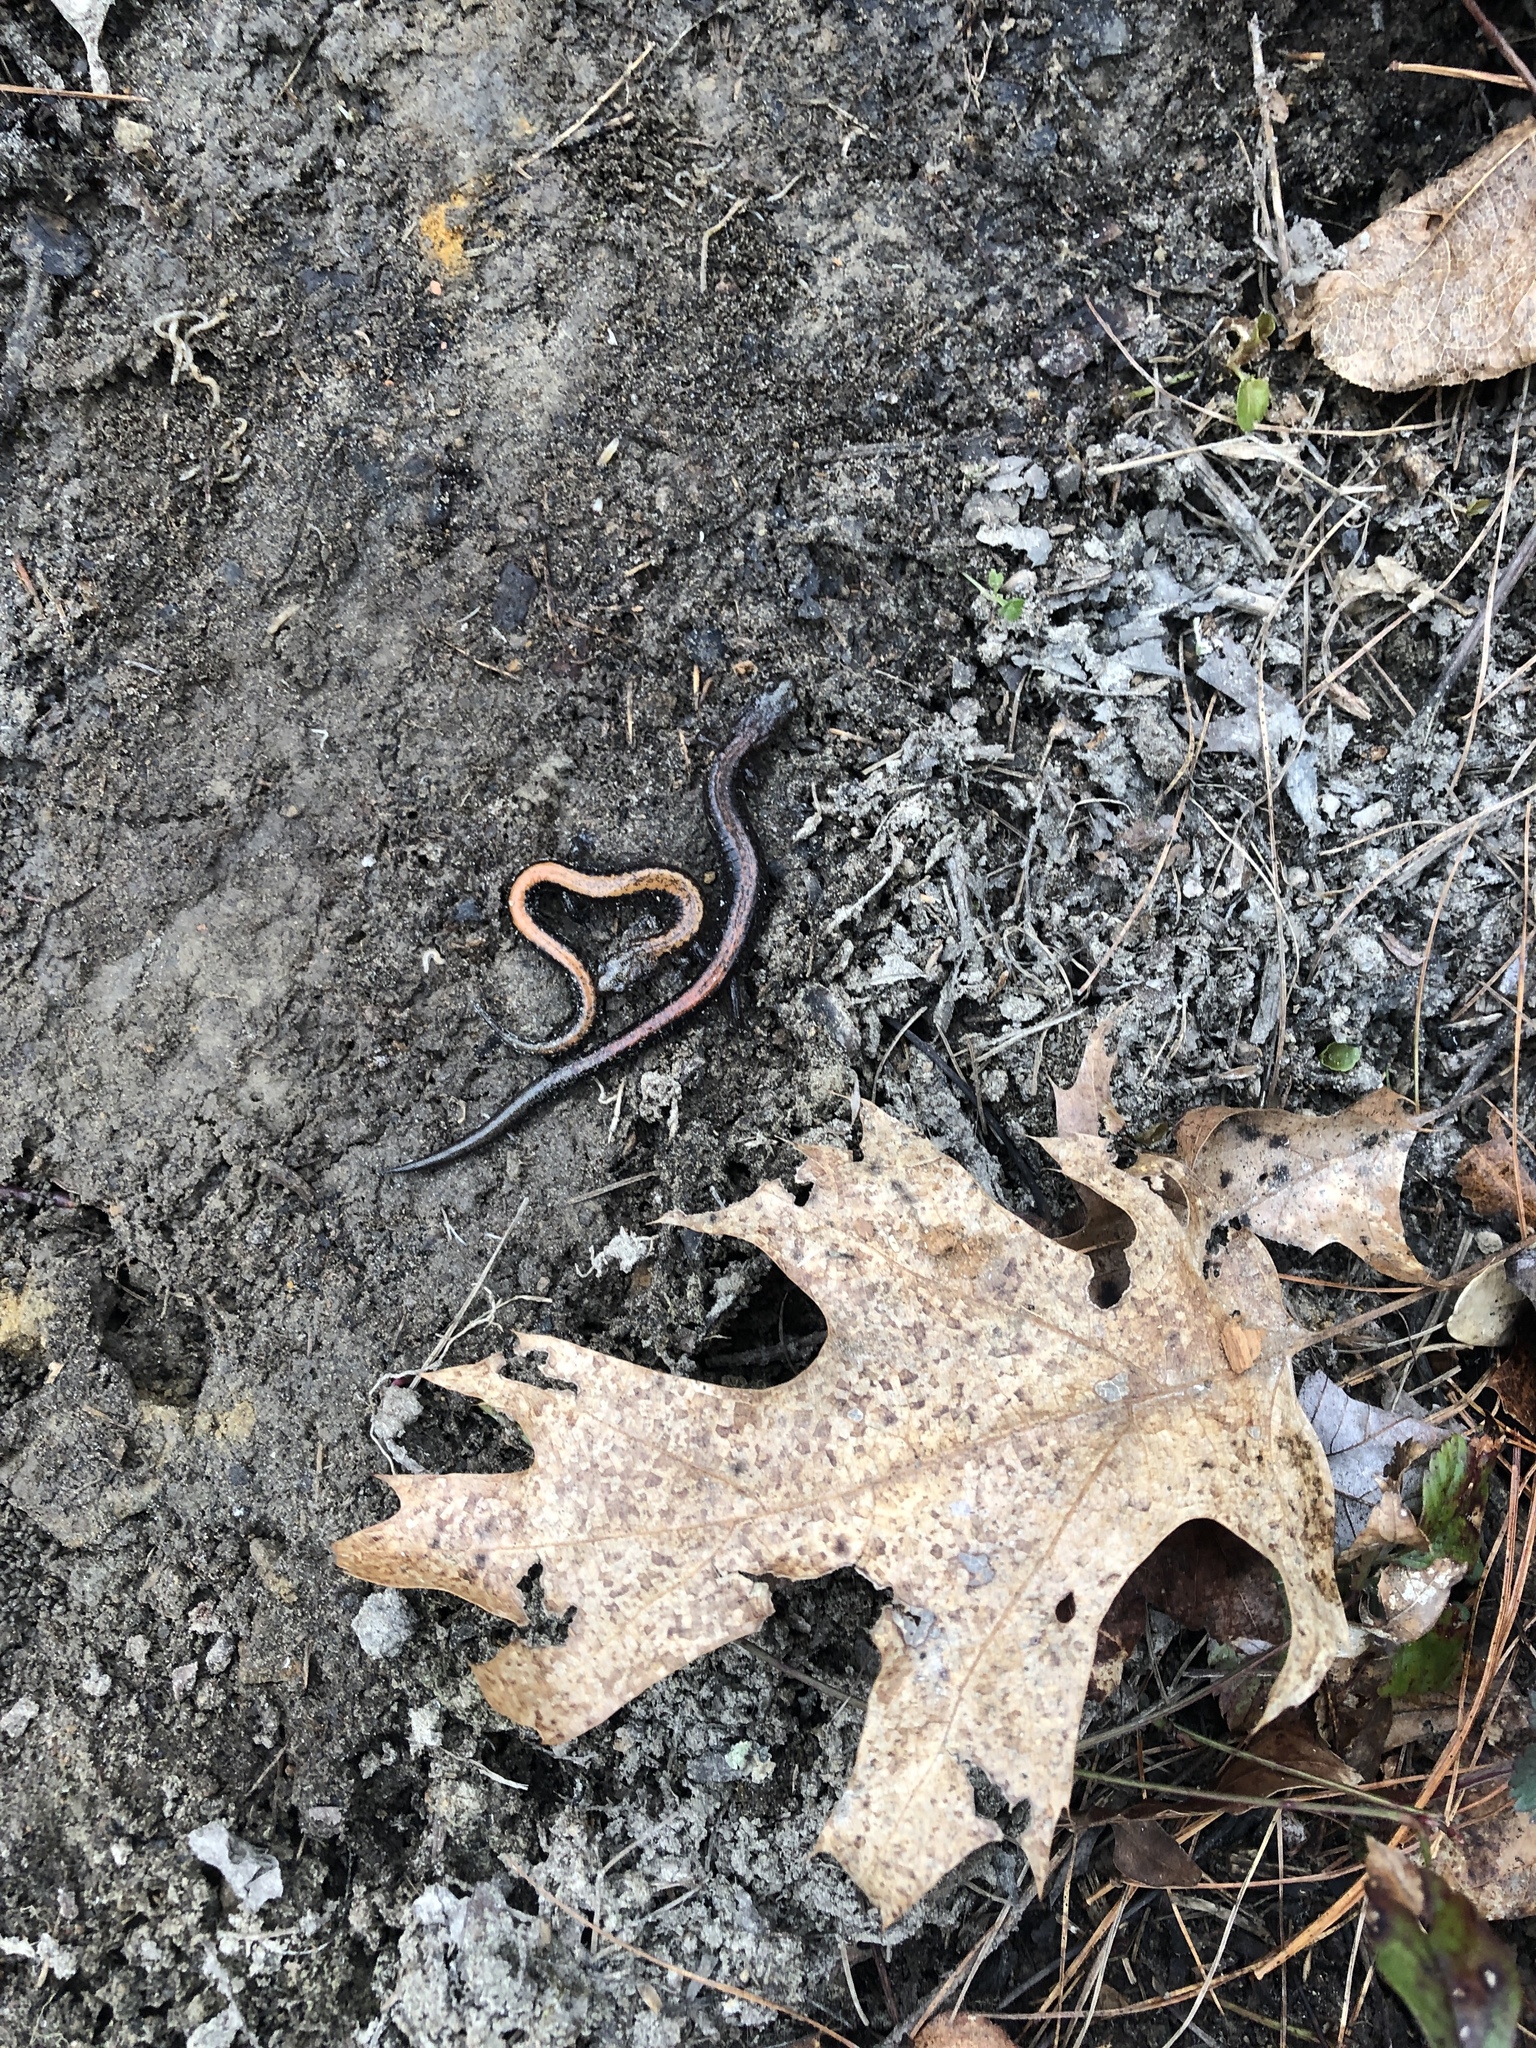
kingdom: Animalia
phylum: Chordata
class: Amphibia
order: Caudata
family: Plethodontidae
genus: Plethodon
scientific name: Plethodon cinereus
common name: Redback salamander
